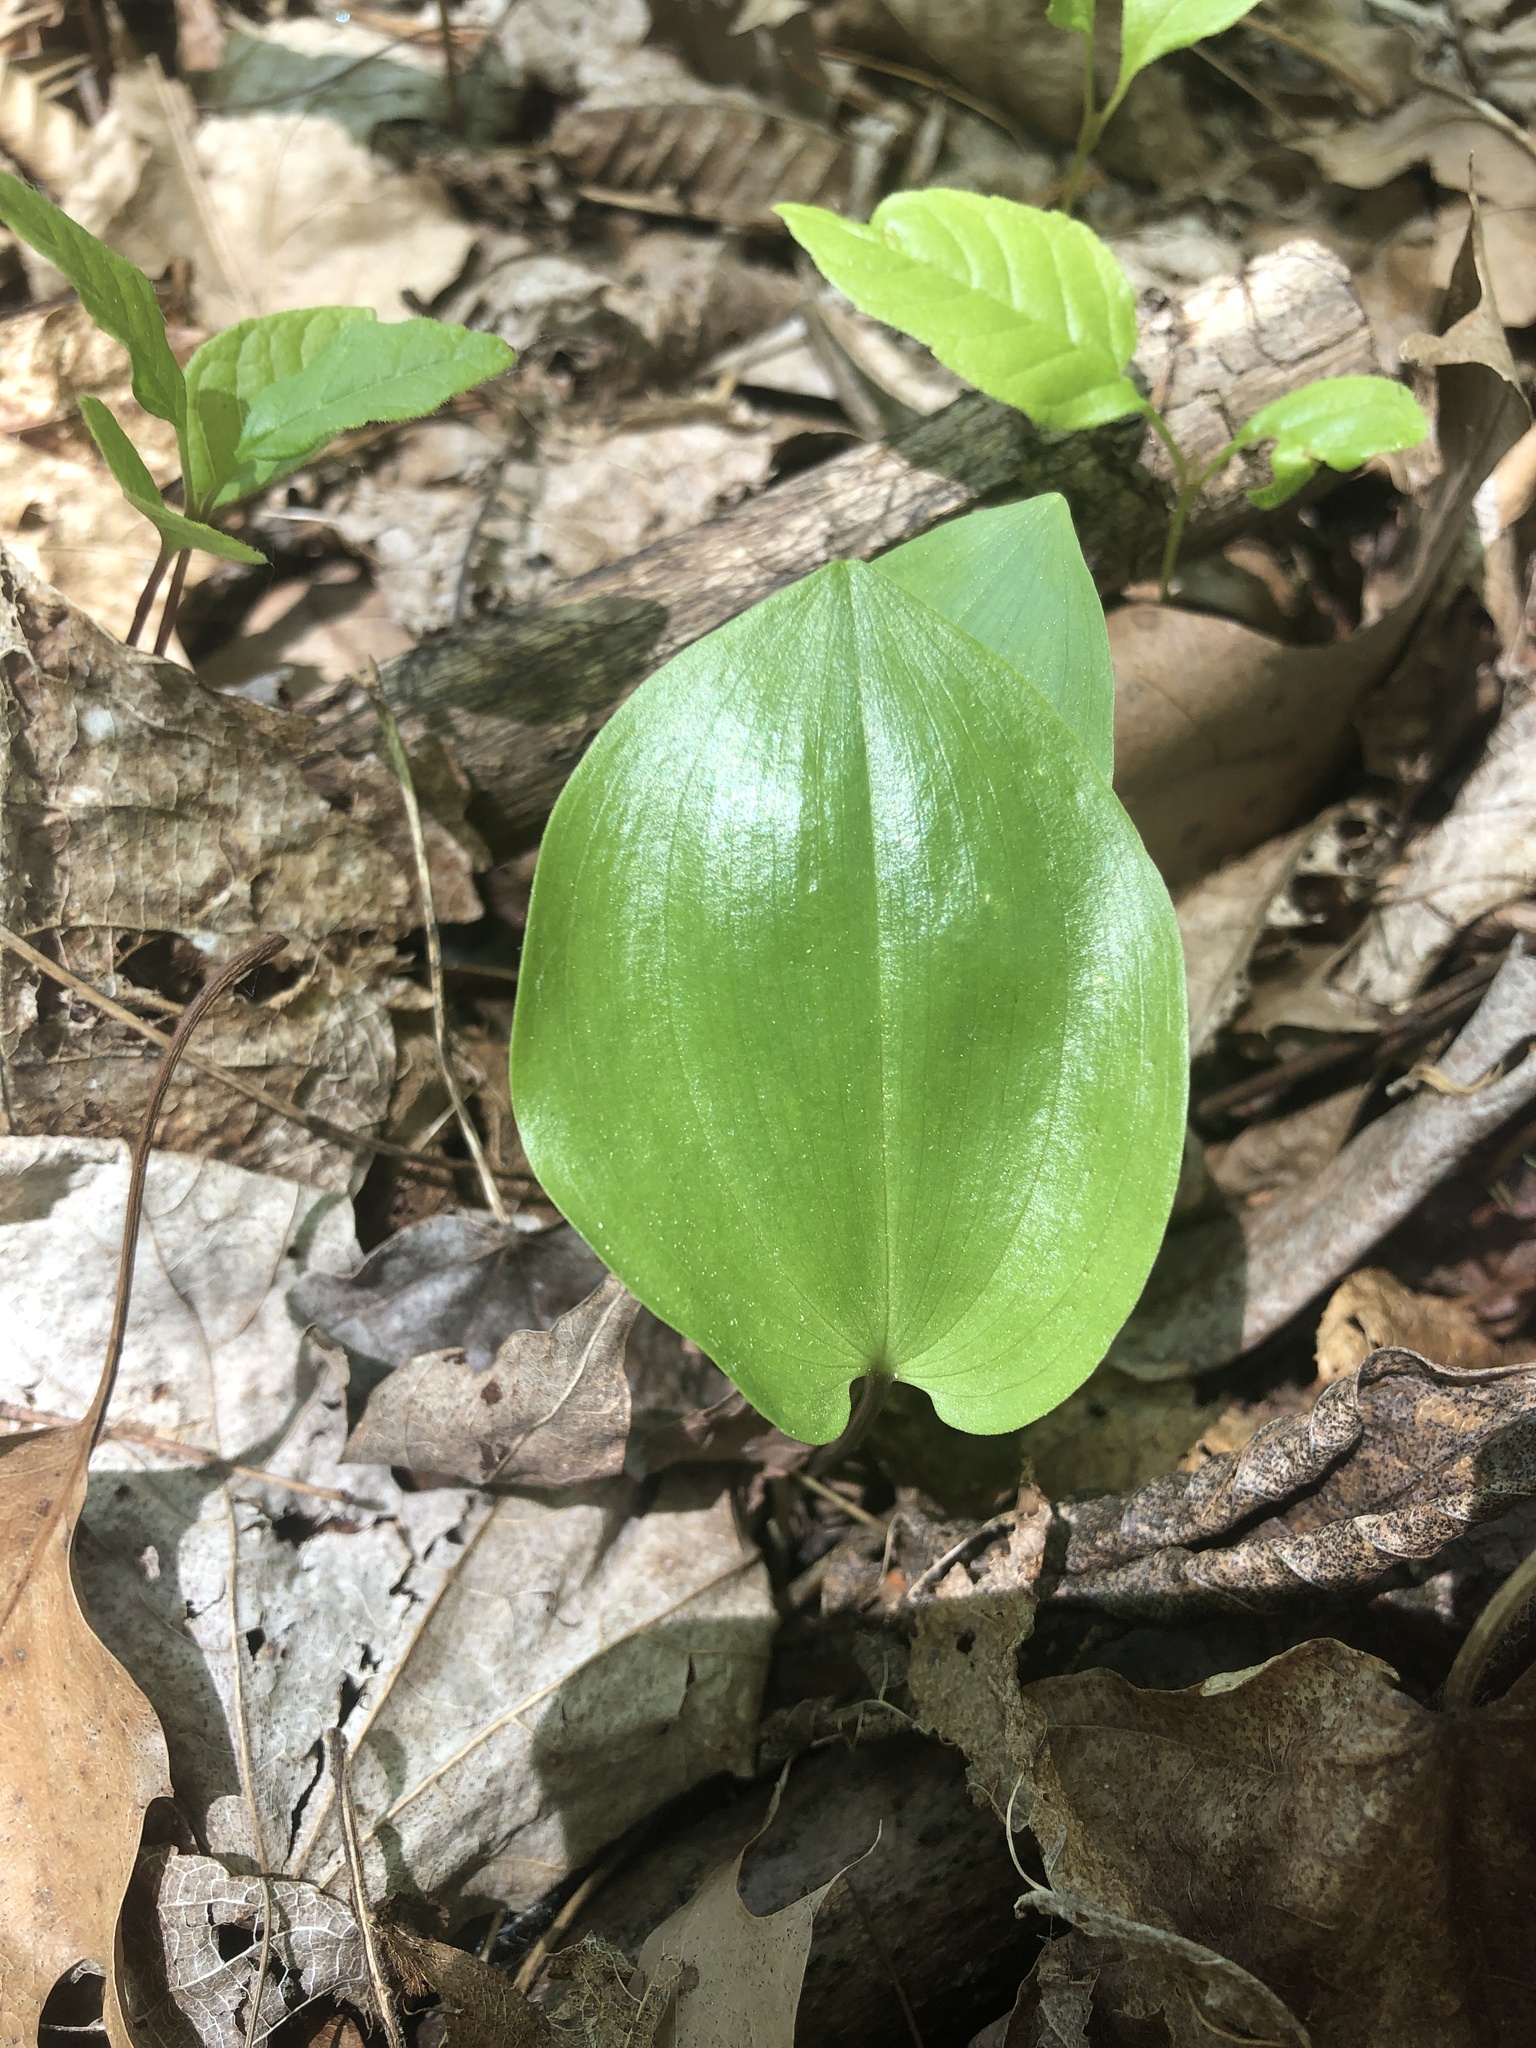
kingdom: Plantae
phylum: Tracheophyta
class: Liliopsida
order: Asparagales
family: Asparagaceae
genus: Maianthemum
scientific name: Maianthemum canadense
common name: False lily-of-the-valley
